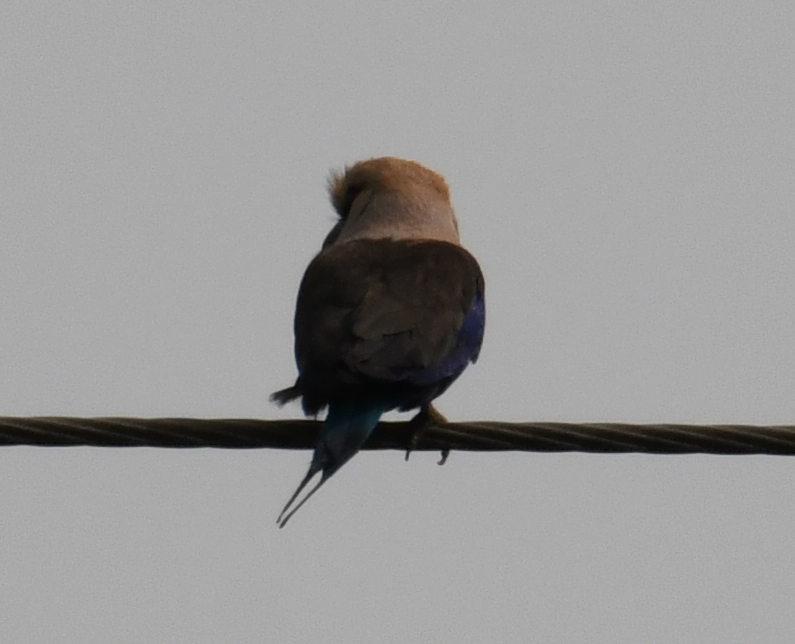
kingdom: Animalia
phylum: Chordata
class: Aves
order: Coraciiformes
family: Coraciidae
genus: Coracias
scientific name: Coracias cyanogaster
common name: Blue-bellied roller
